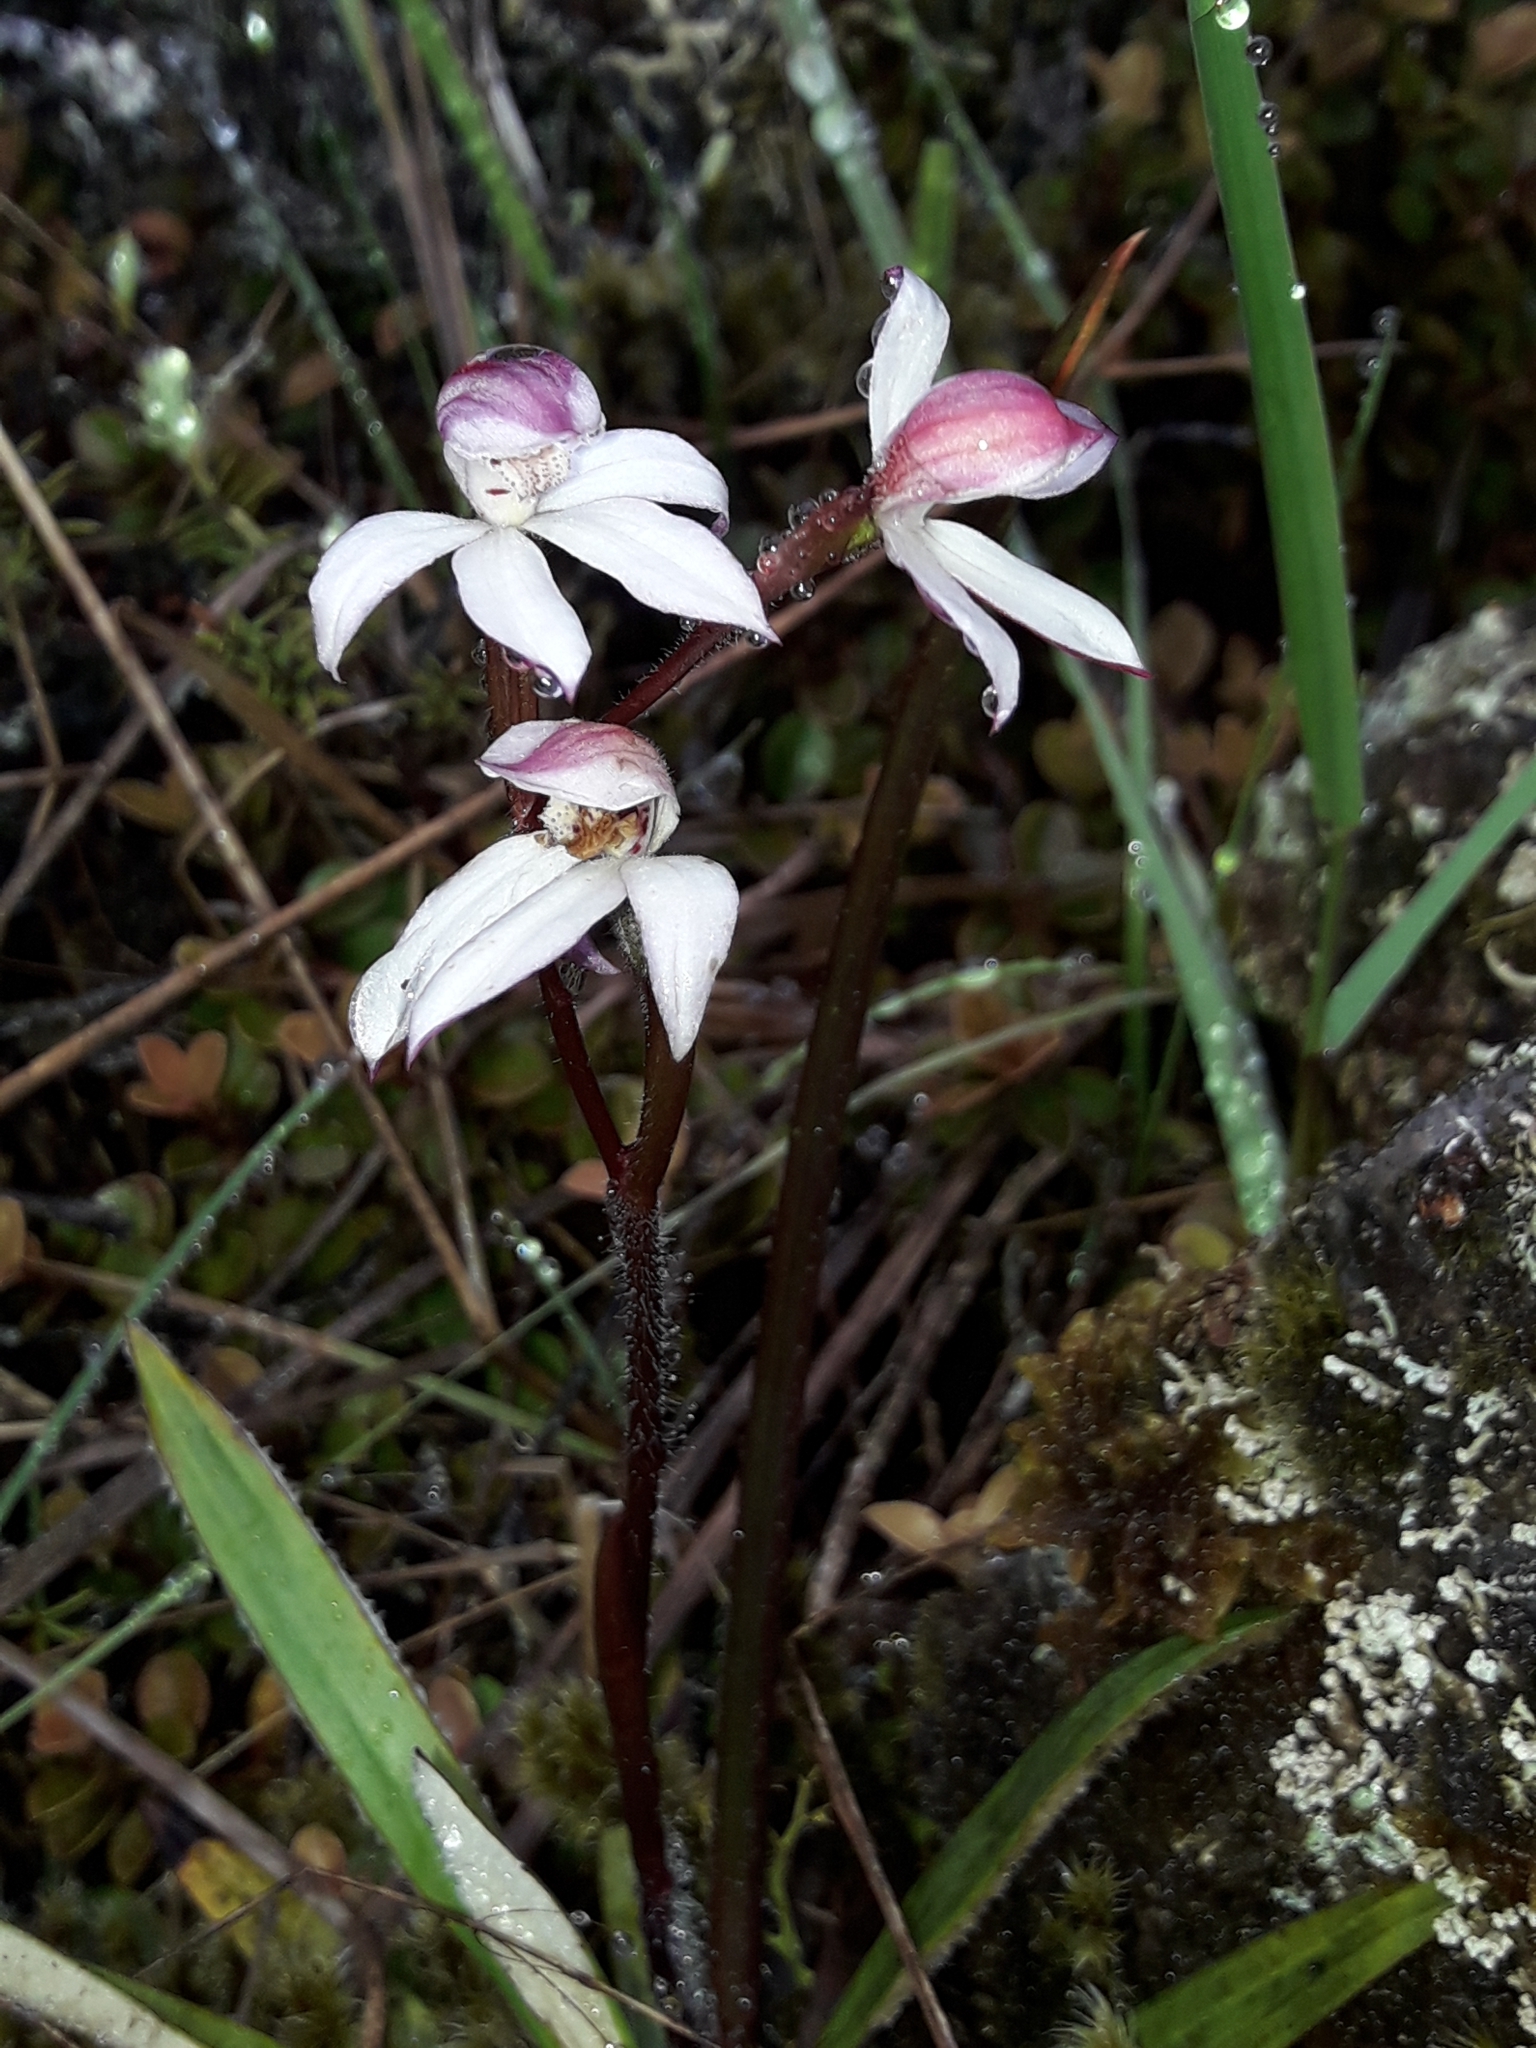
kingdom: Plantae
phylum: Tracheophyta
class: Liliopsida
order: Asparagales
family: Orchidaceae
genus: Caladenia
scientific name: Caladenia lyallii
